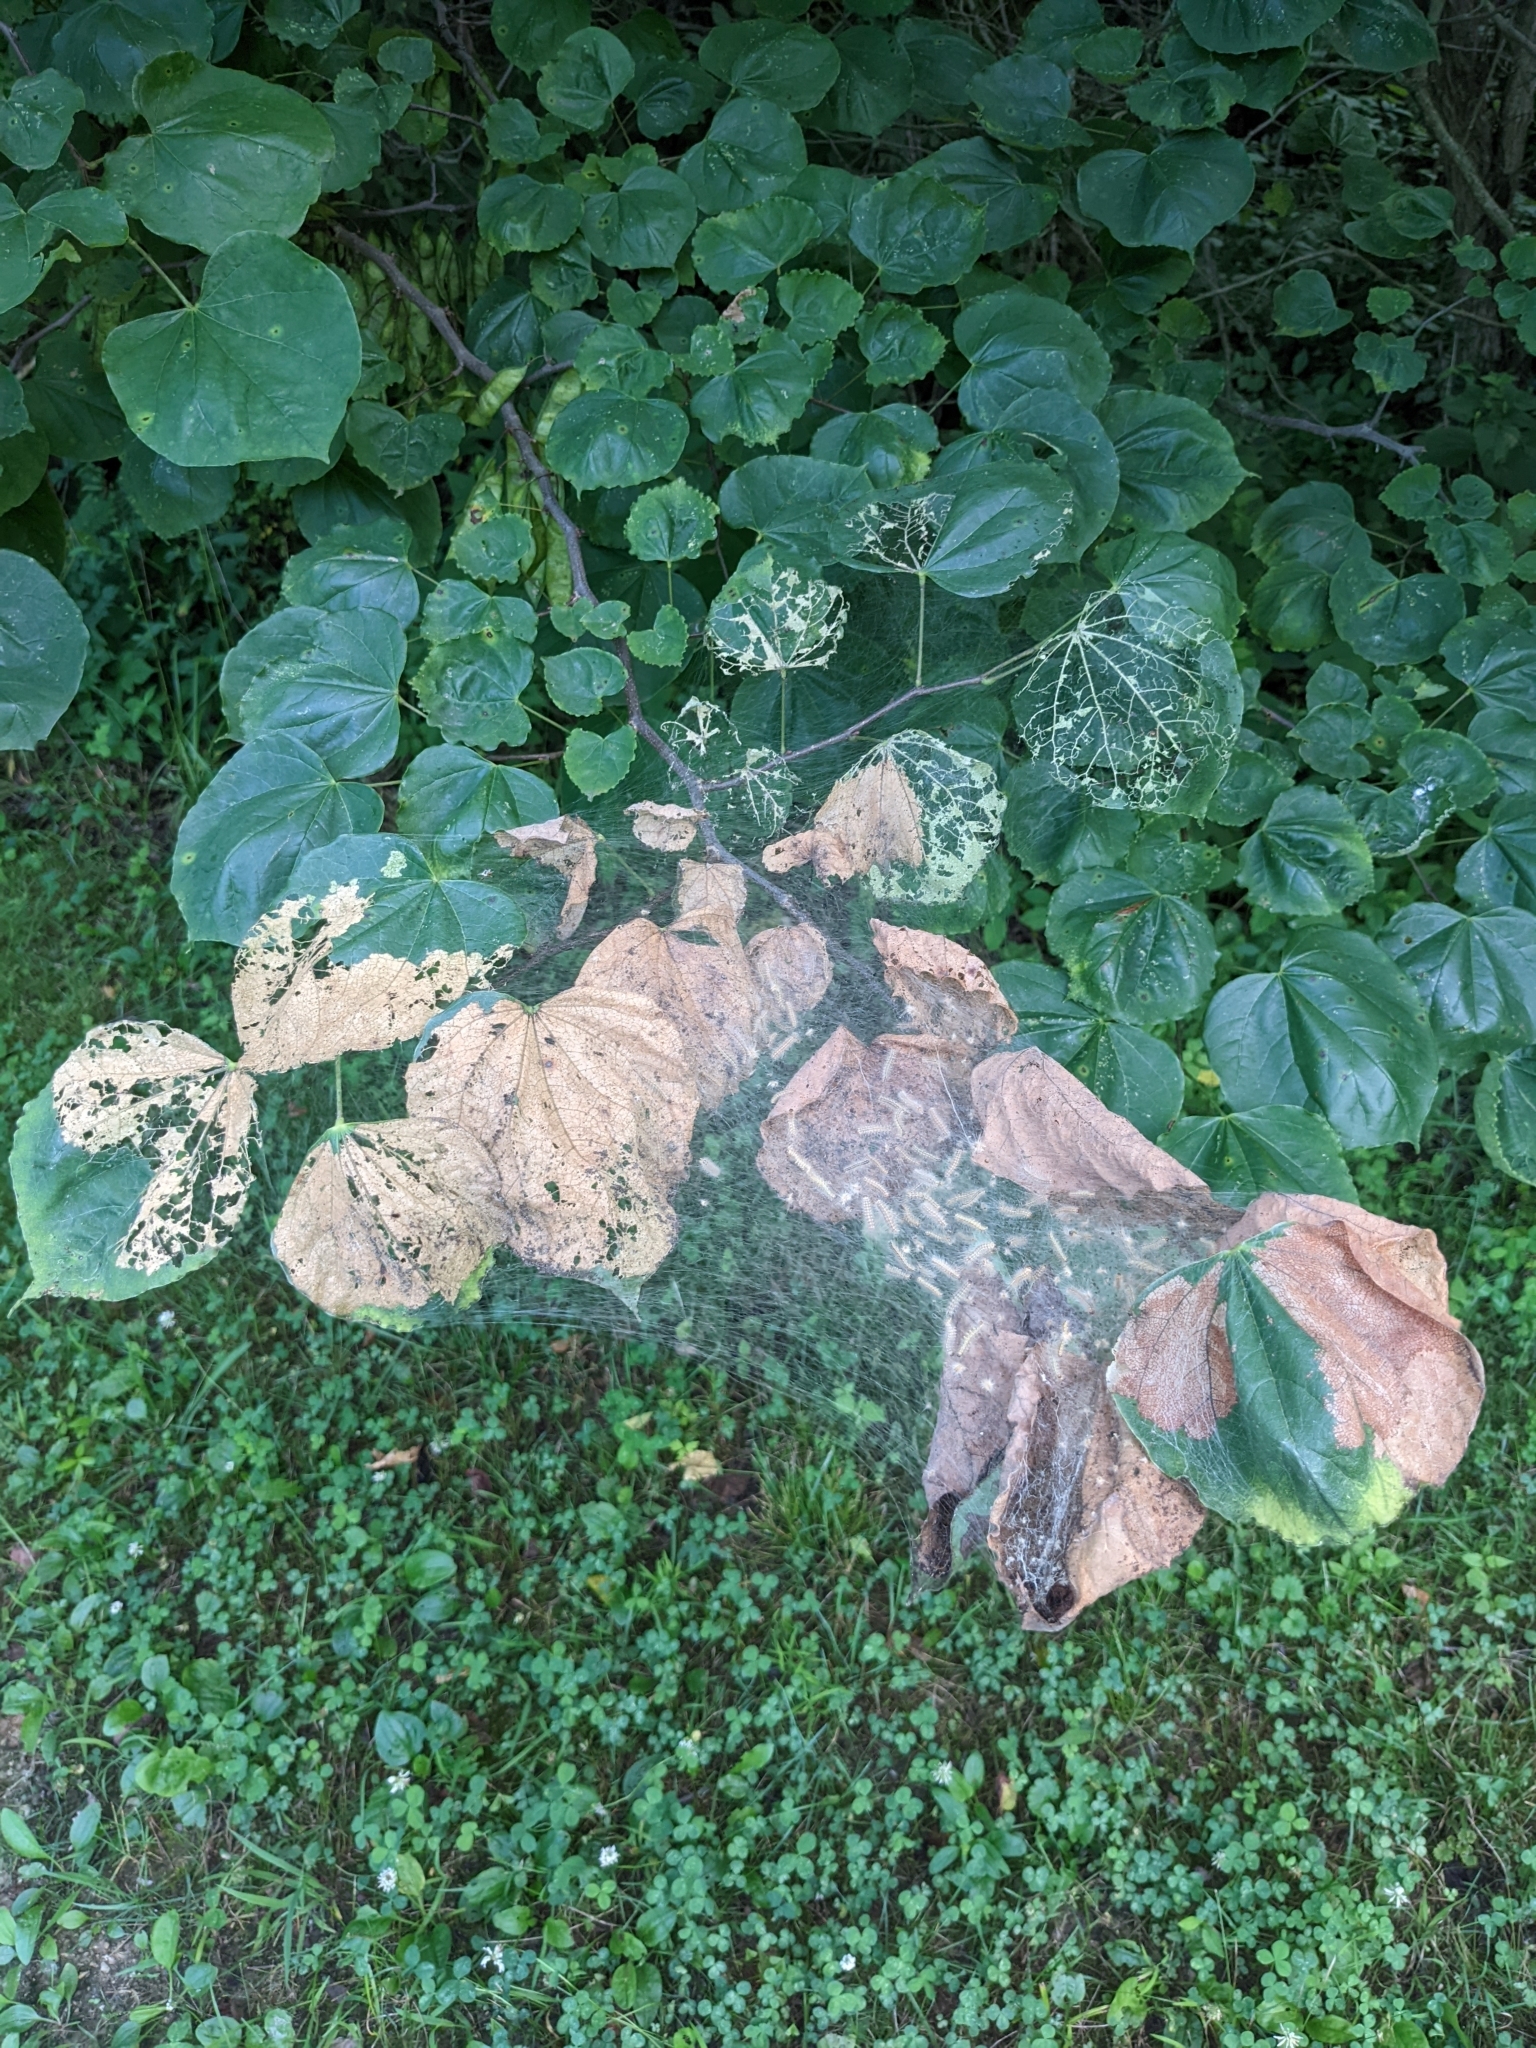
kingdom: Animalia
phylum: Arthropoda
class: Insecta
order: Lepidoptera
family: Erebidae
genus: Hyphantria
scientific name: Hyphantria cunea
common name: American white moth
